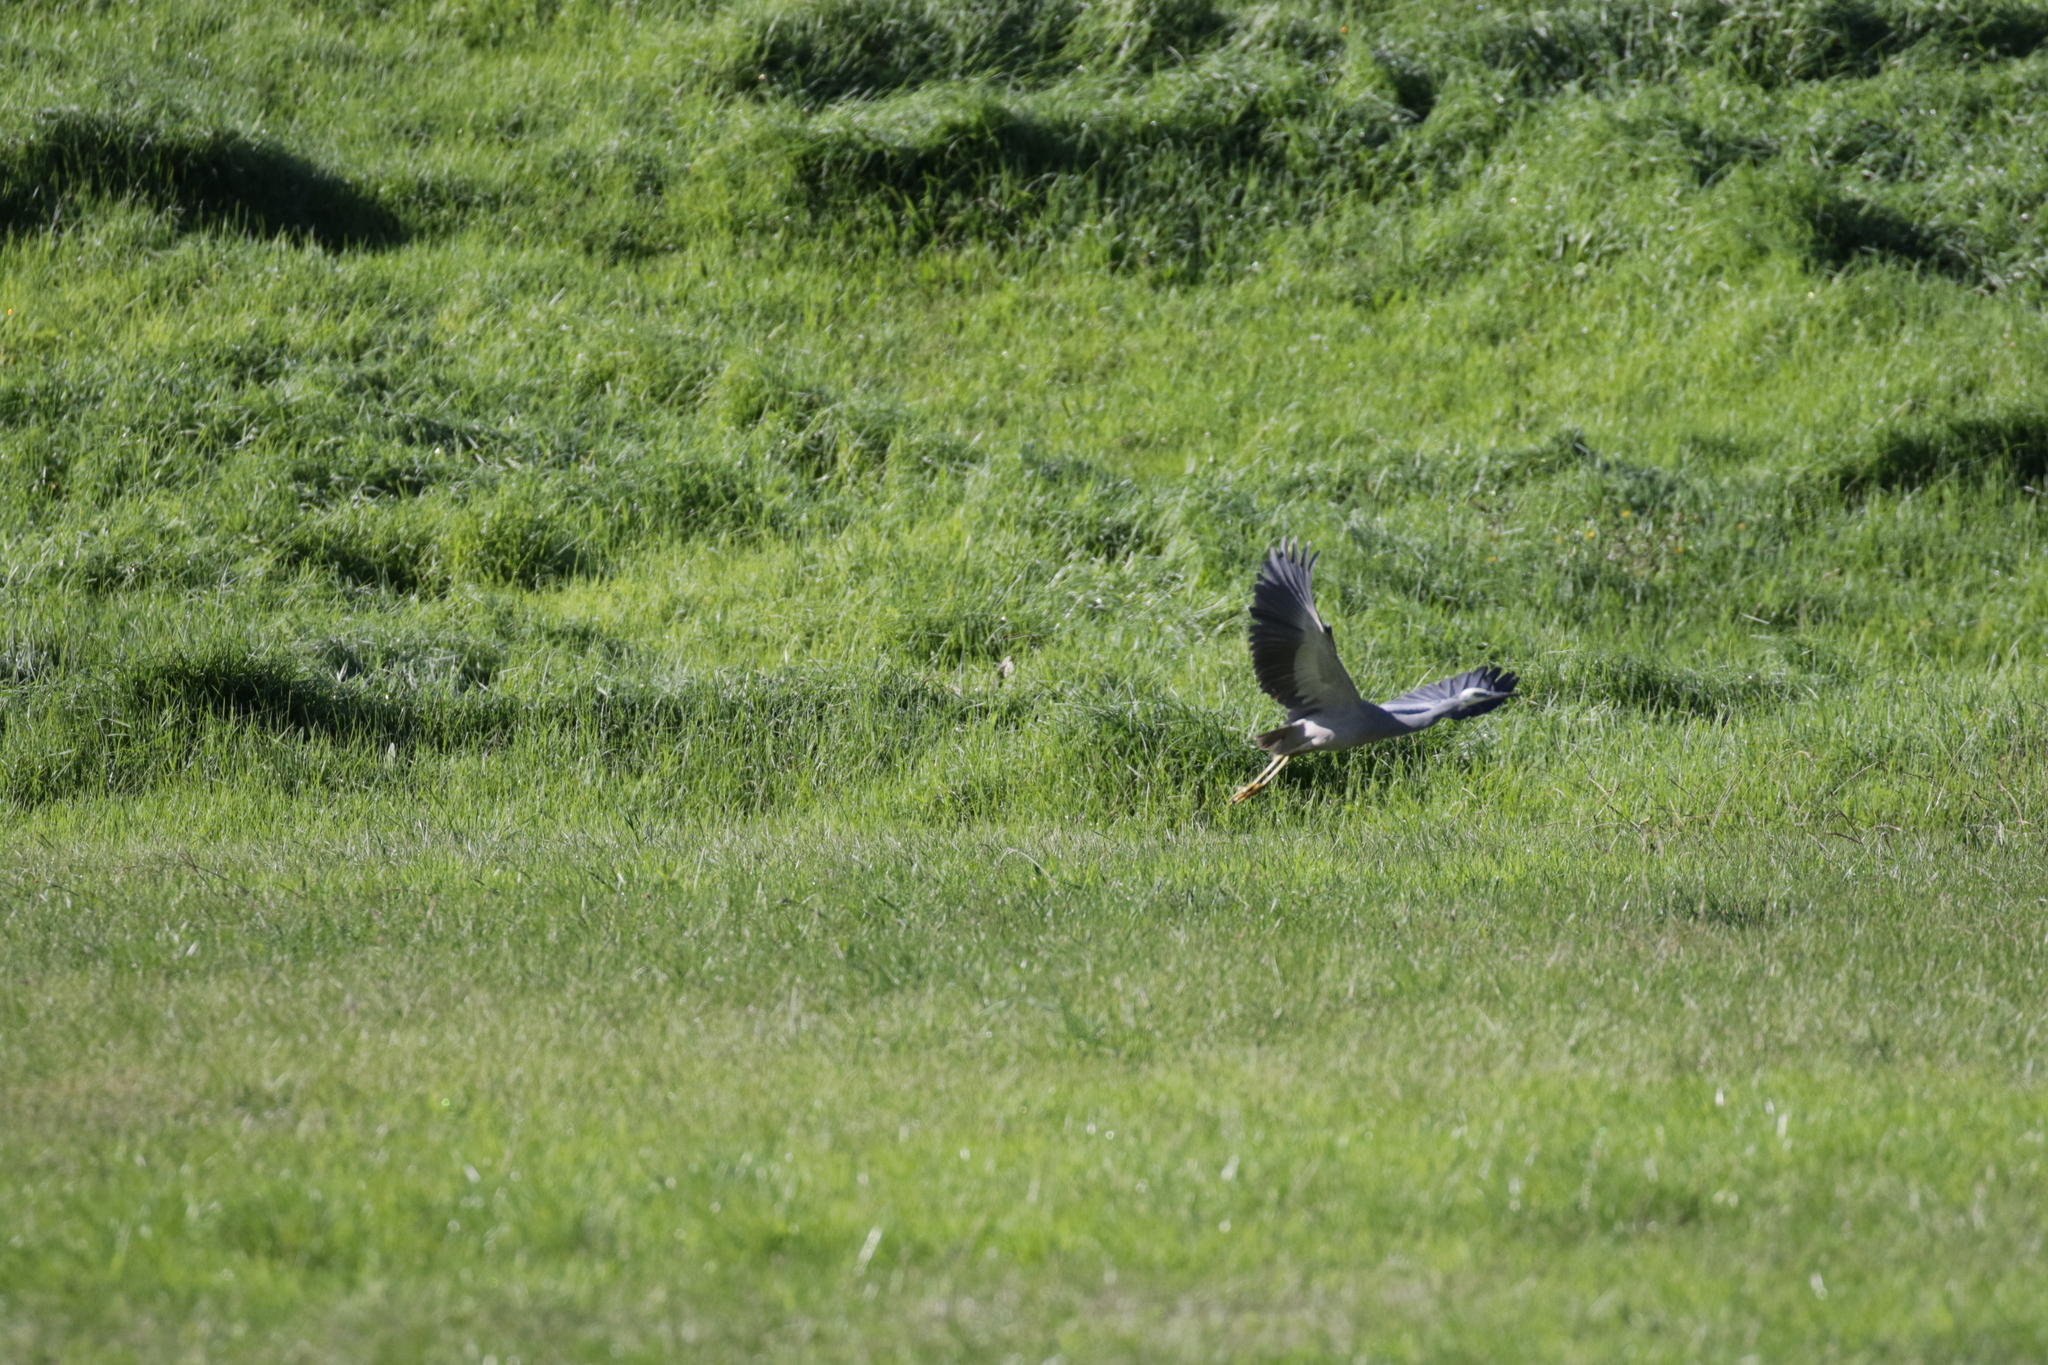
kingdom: Animalia
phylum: Chordata
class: Aves
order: Pelecaniformes
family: Ardeidae
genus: Egretta
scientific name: Egretta novaehollandiae
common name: White-faced heron
